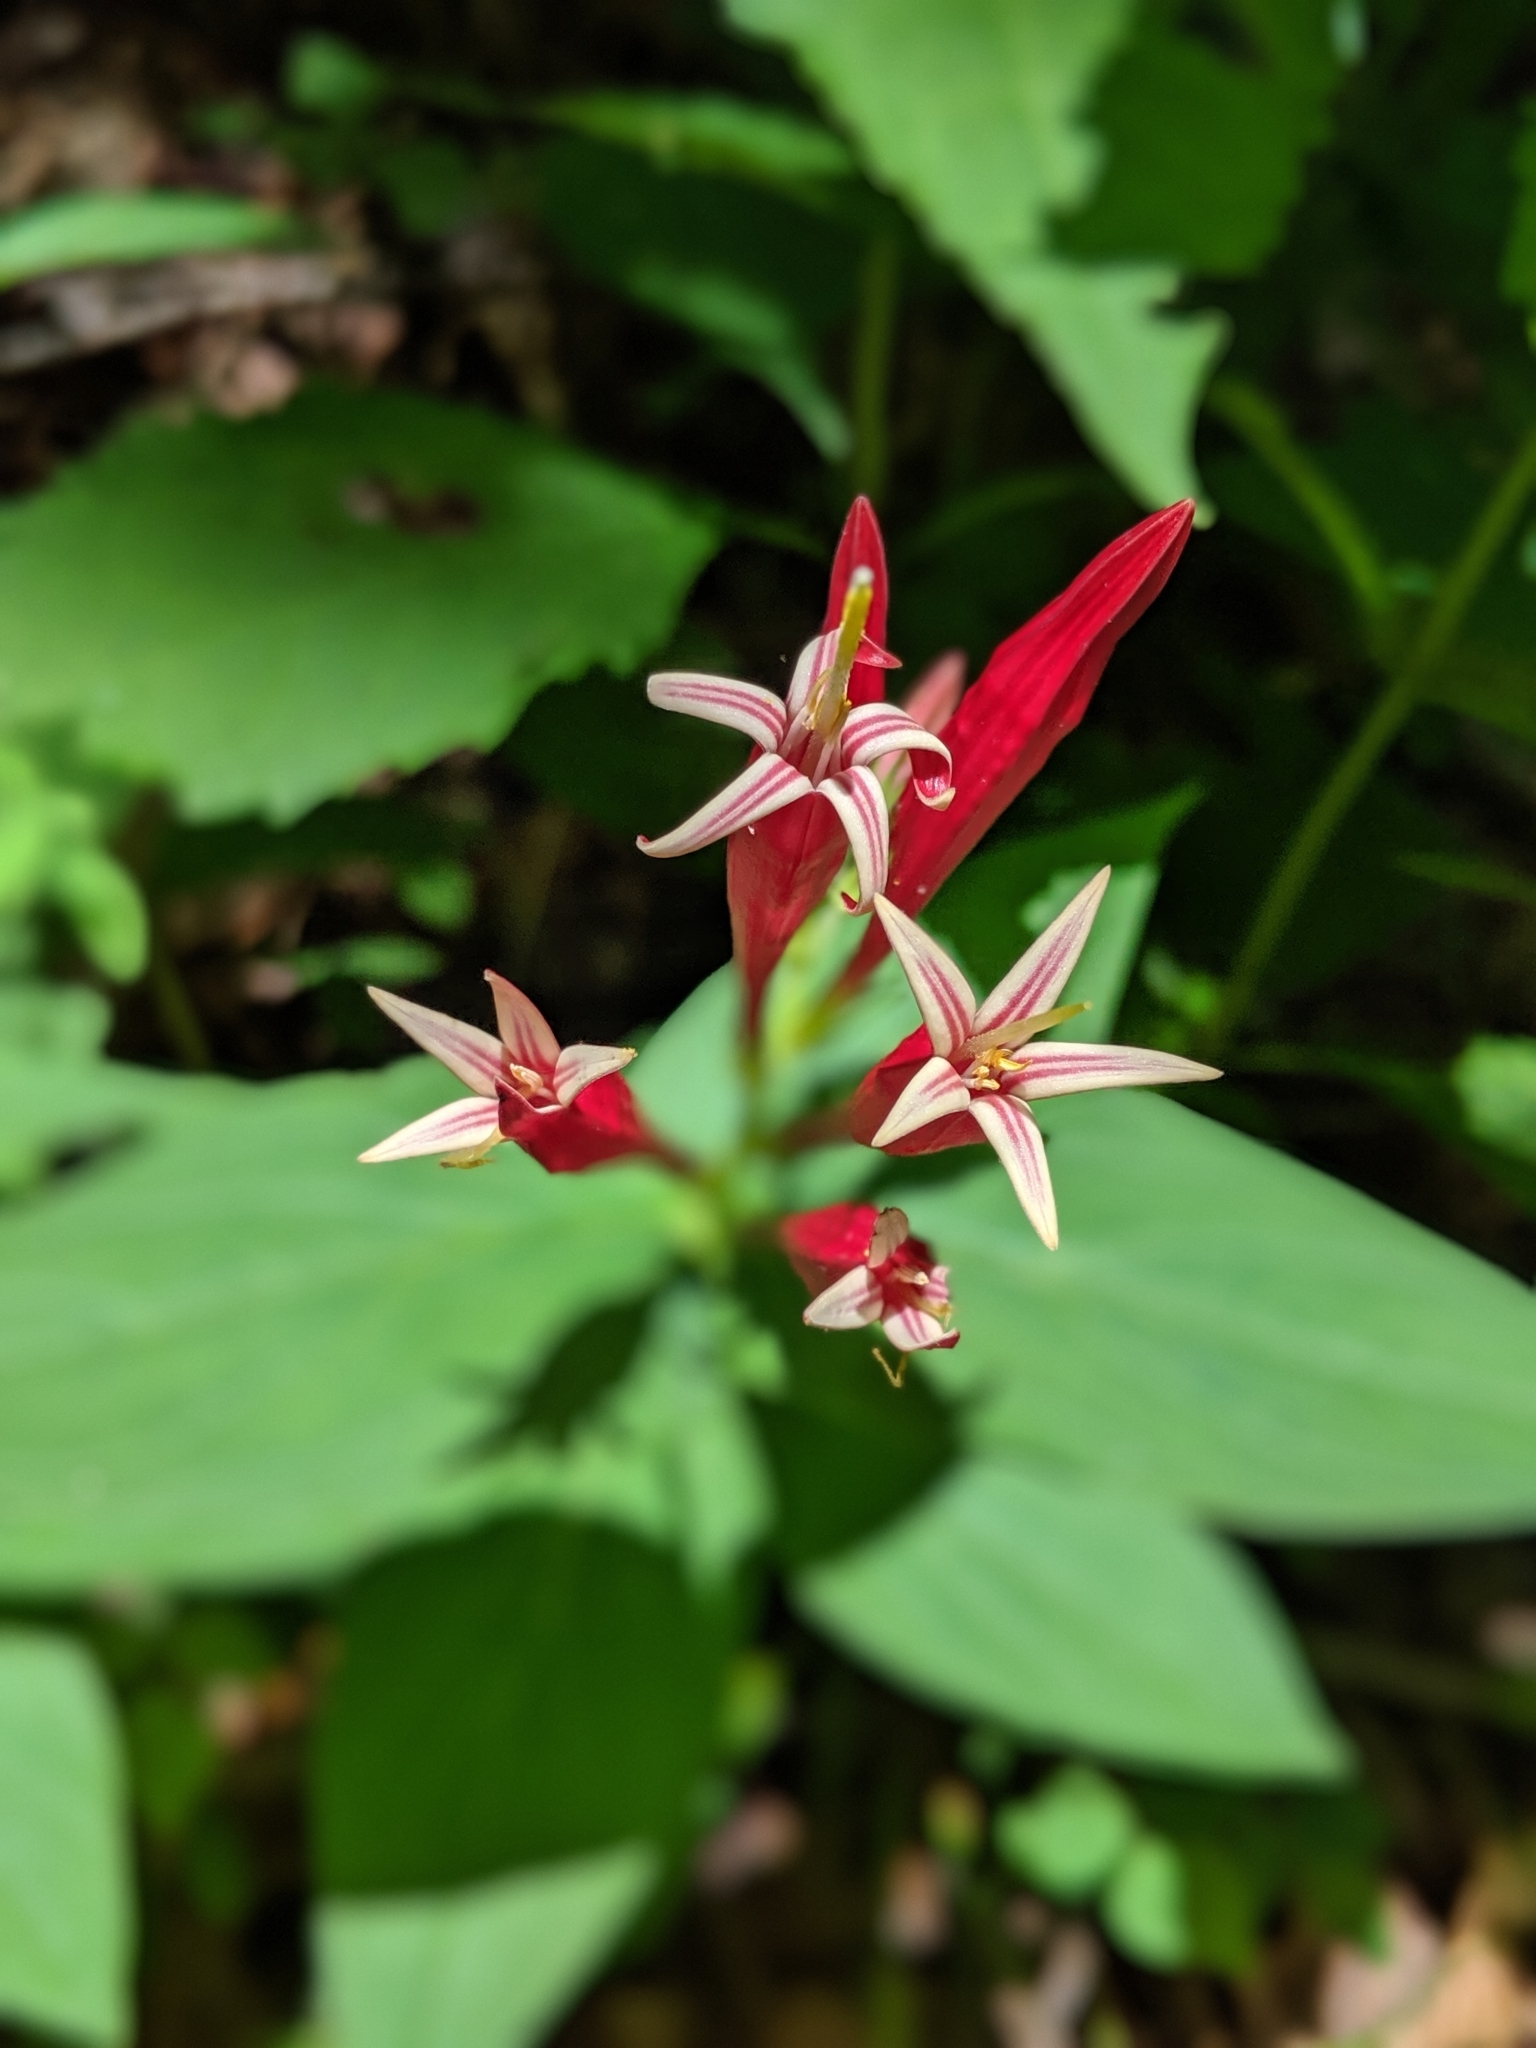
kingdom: Plantae
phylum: Tracheophyta
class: Magnoliopsida
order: Gentianales
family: Loganiaceae
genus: Spigelia
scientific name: Spigelia marilandica
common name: Indian-pink
